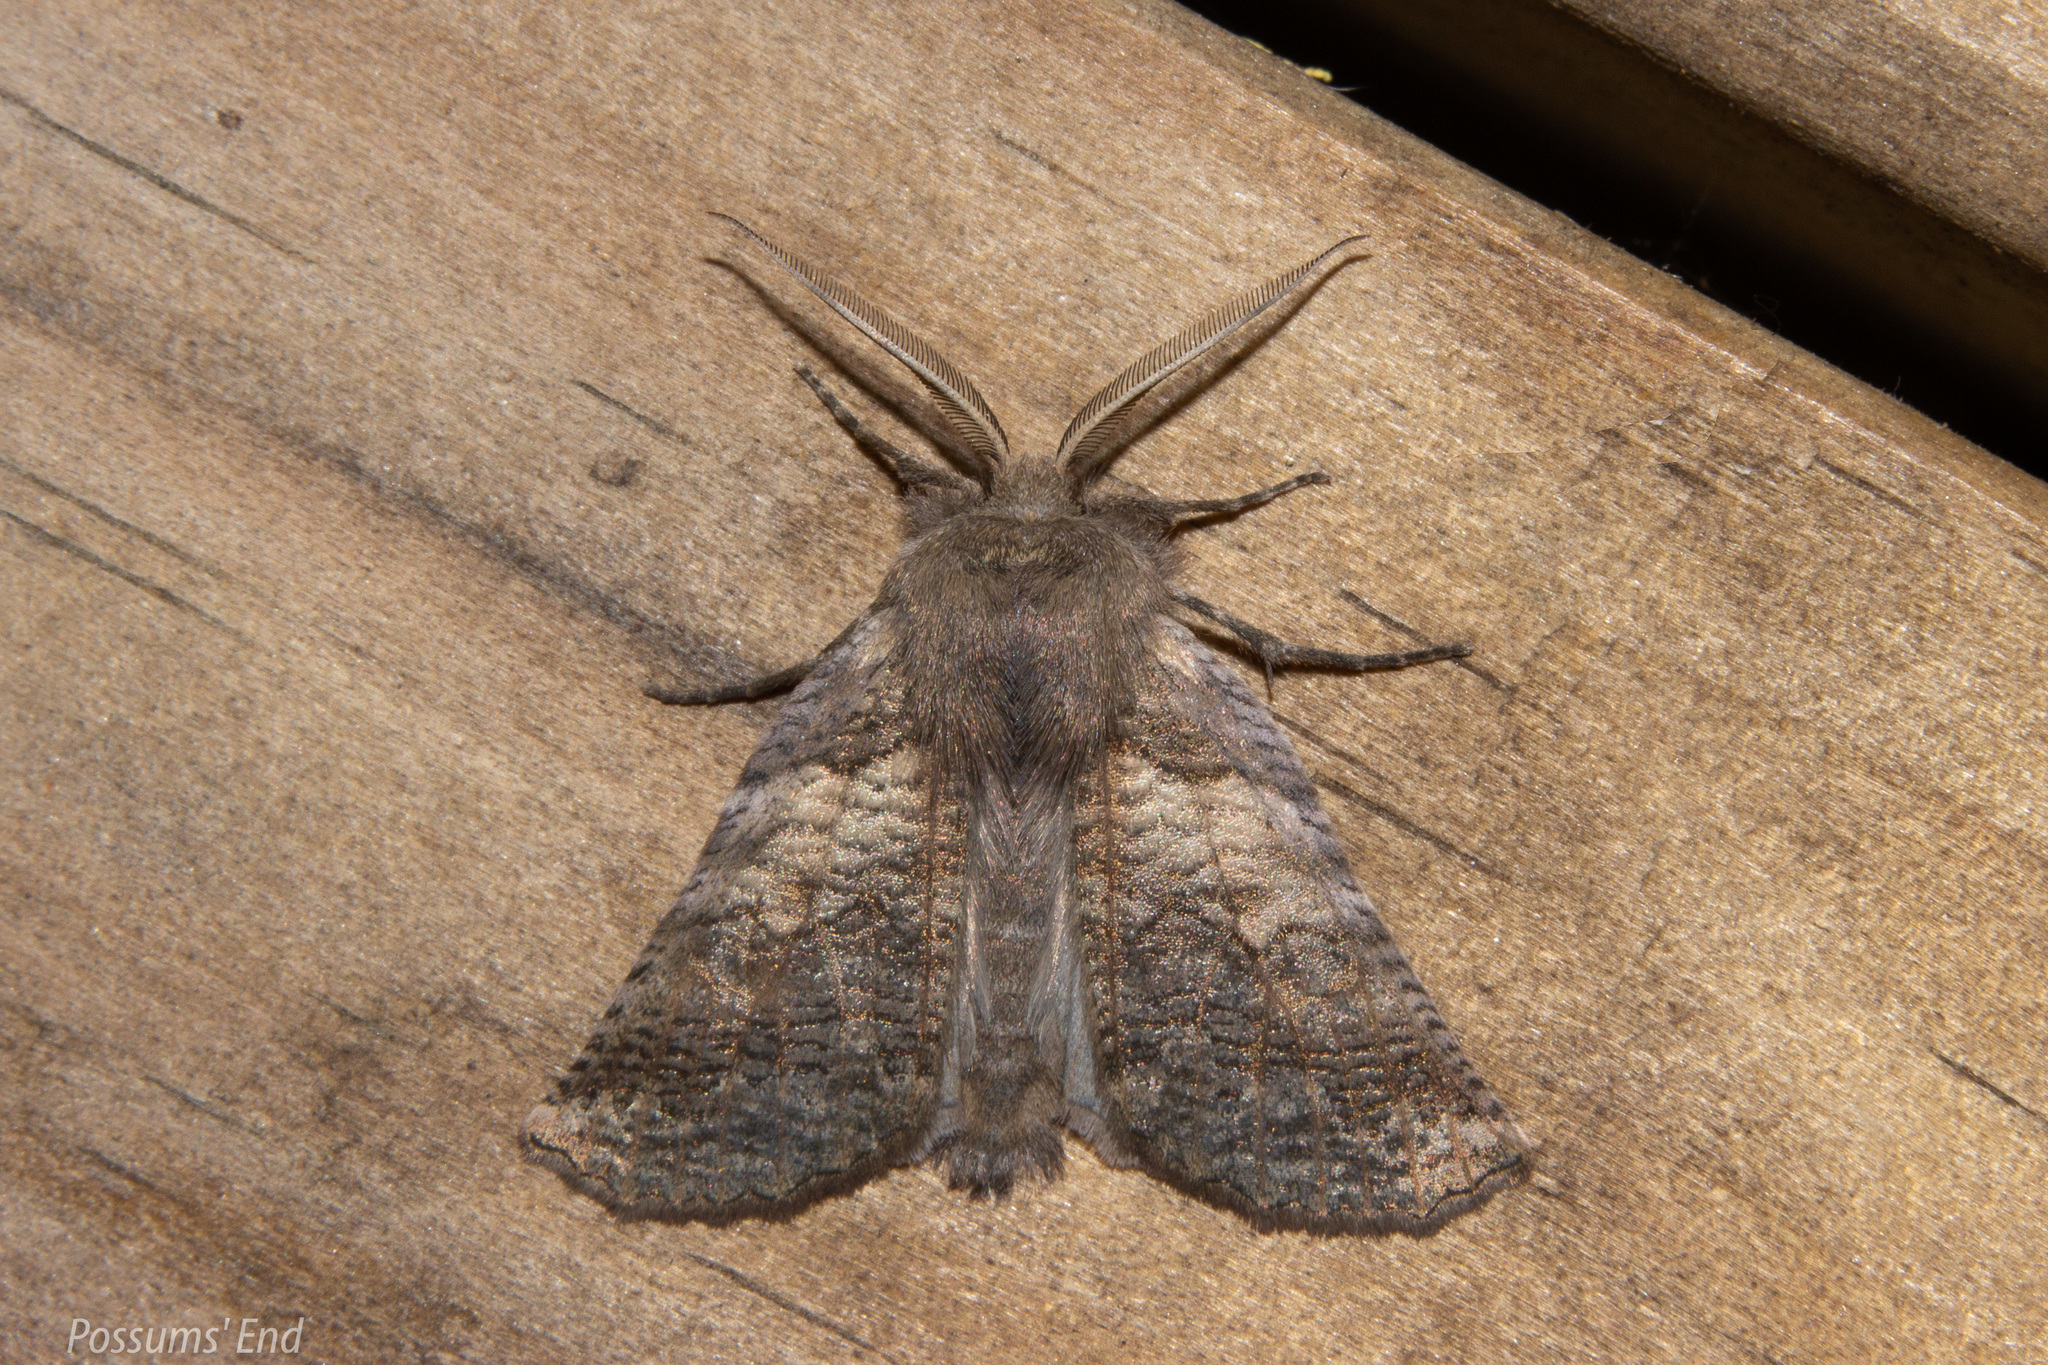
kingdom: Animalia
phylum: Arthropoda
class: Insecta
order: Lepidoptera
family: Geometridae
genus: Declana
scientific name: Declana
